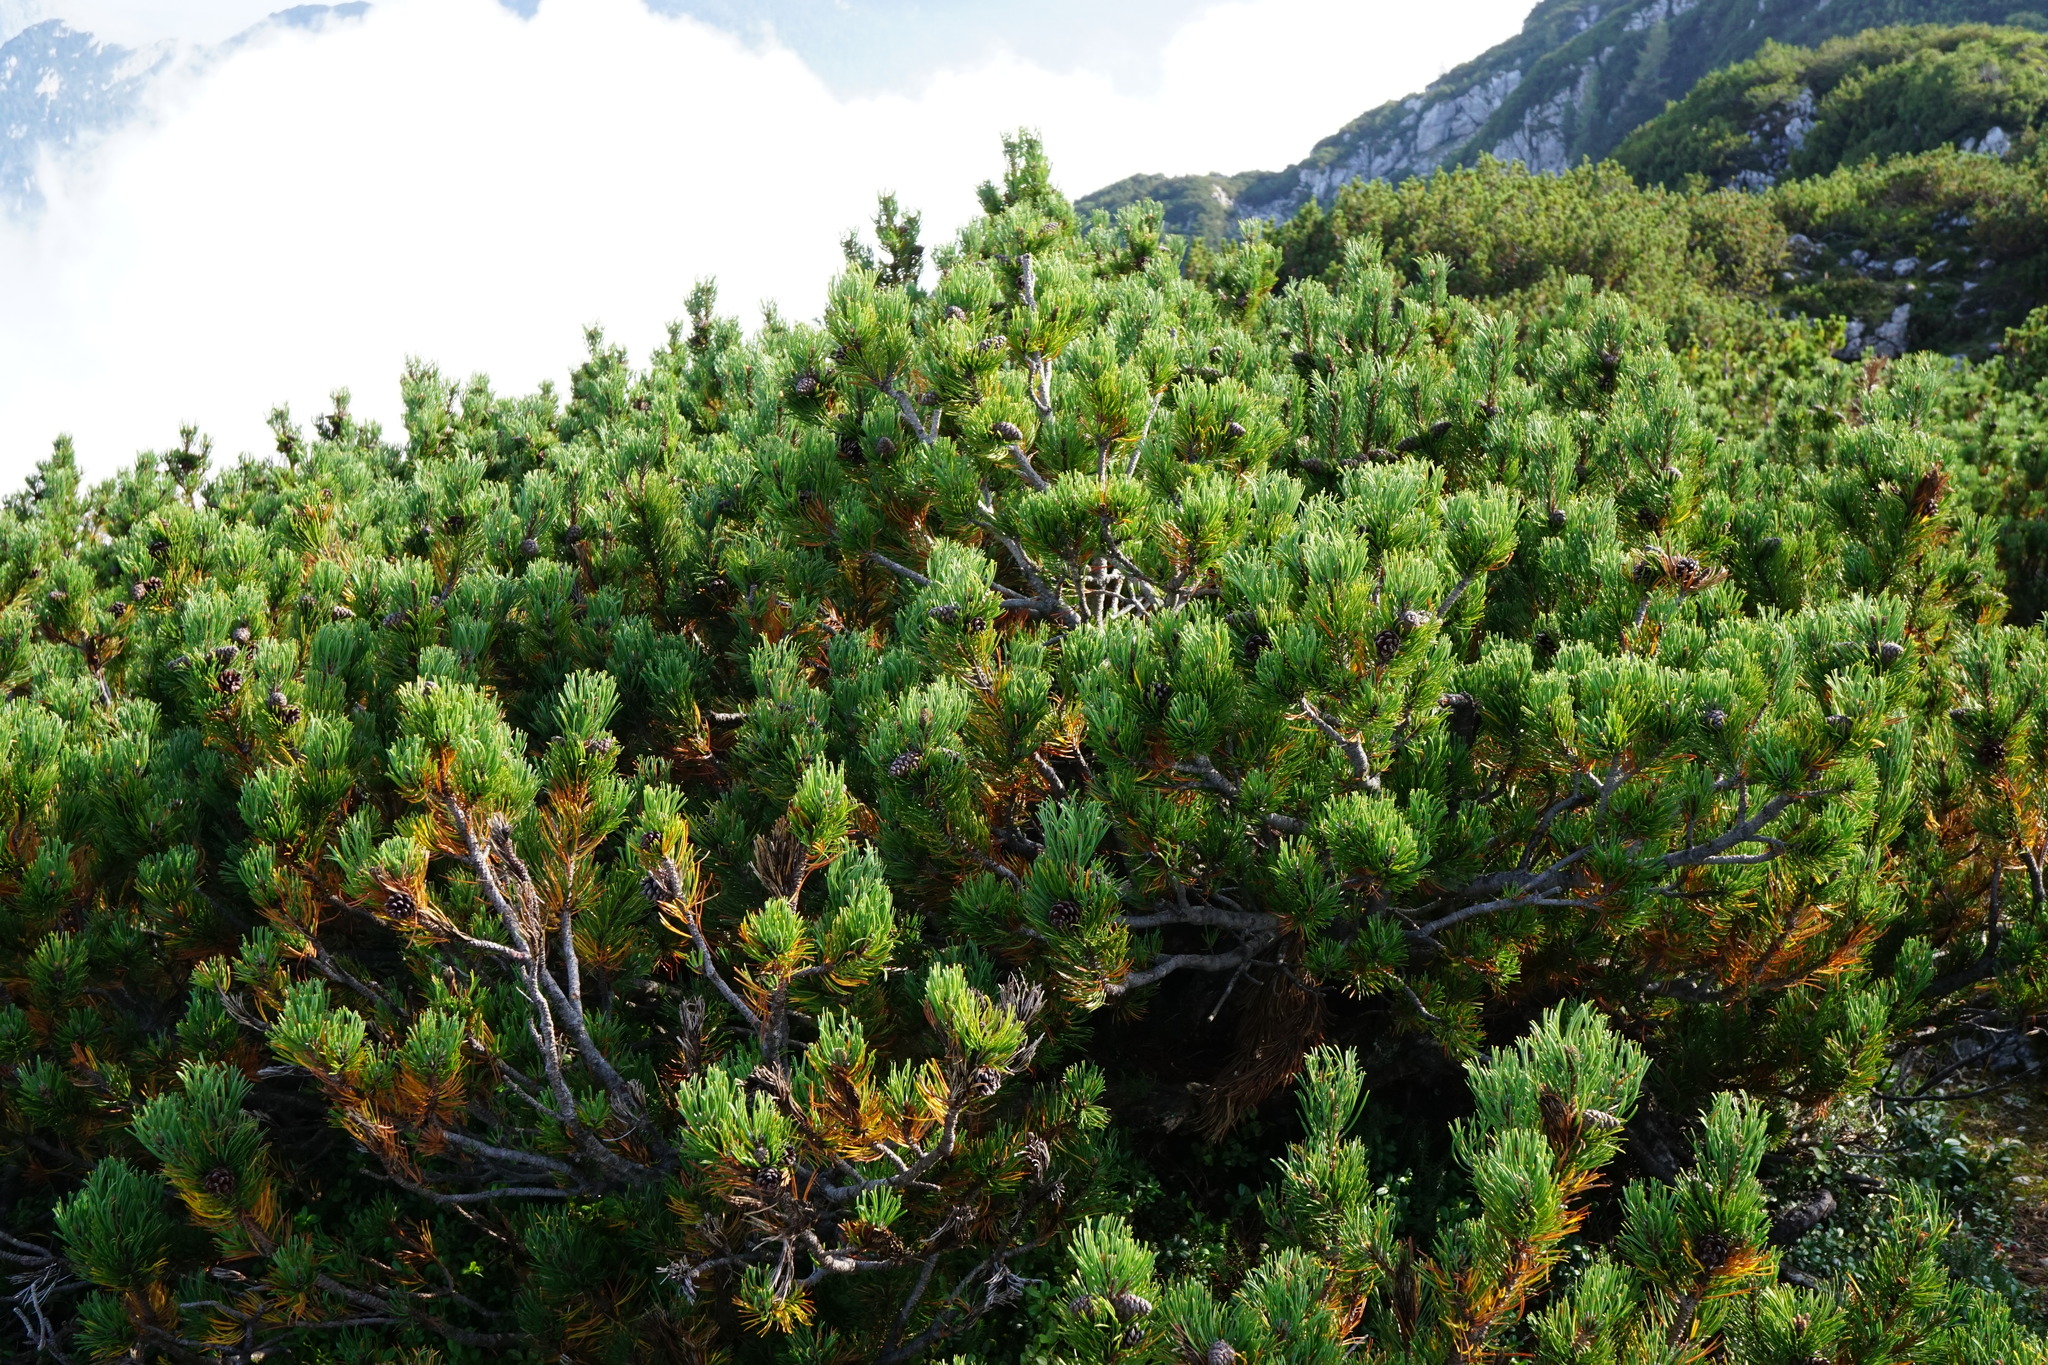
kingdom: Plantae
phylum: Tracheophyta
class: Pinopsida
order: Pinales
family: Pinaceae
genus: Pinus
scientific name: Pinus mugo
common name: Mugo pine
